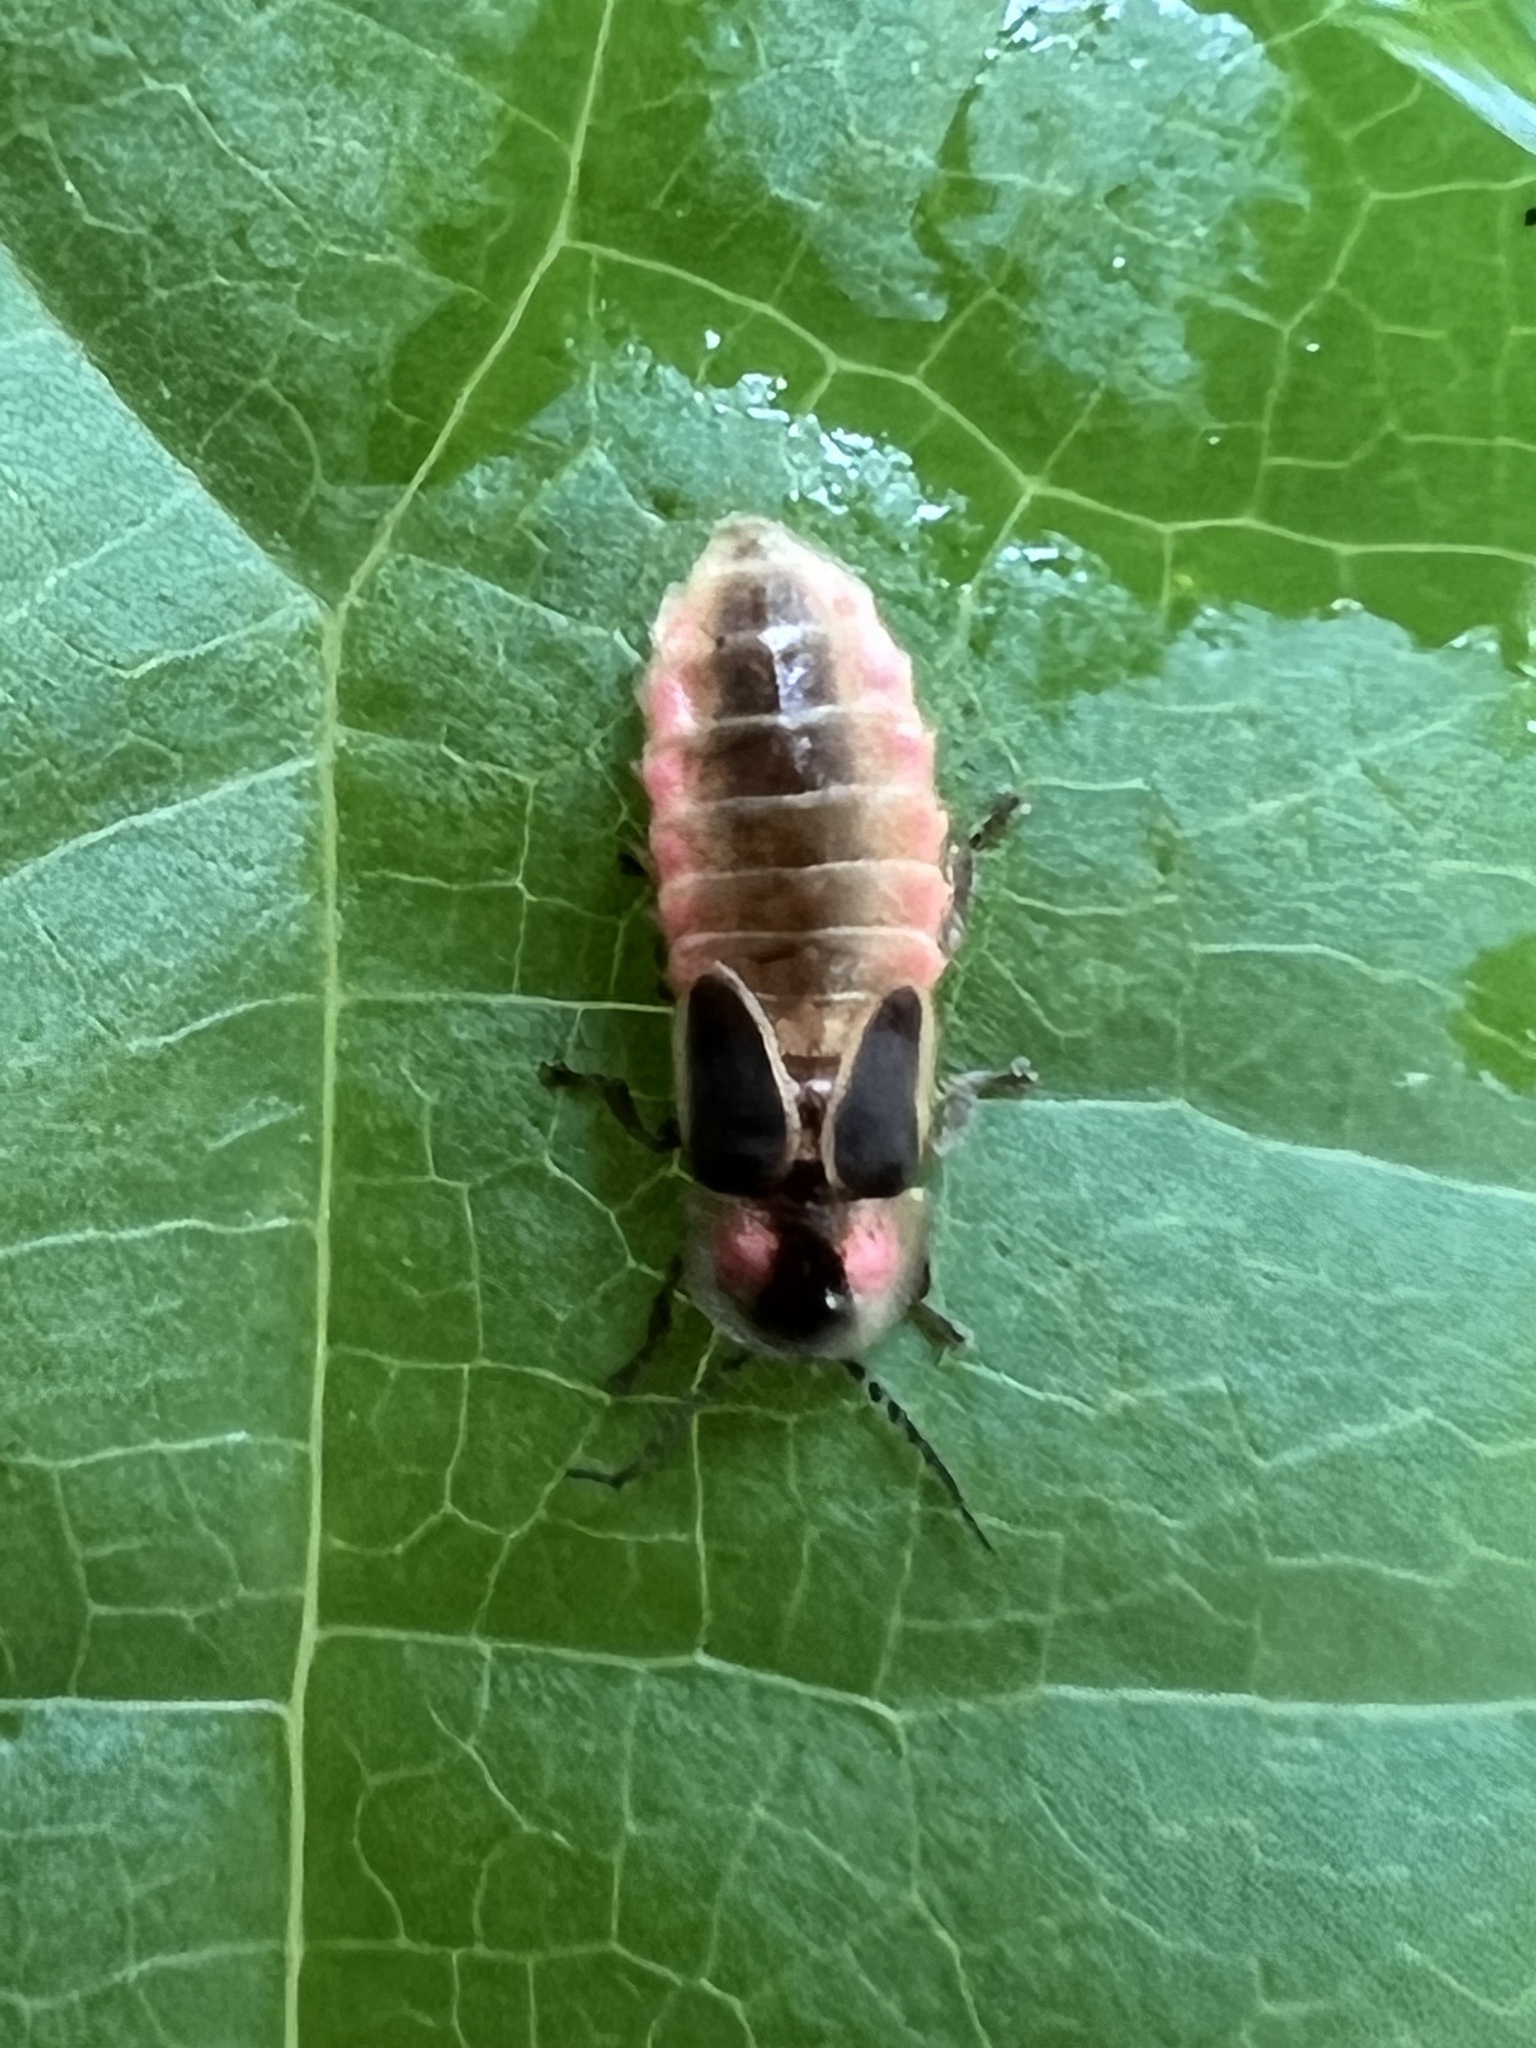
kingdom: Animalia
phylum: Arthropoda
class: Insecta
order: Coleoptera
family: Lampyridae
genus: Photinus
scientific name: Photinus scintillans
